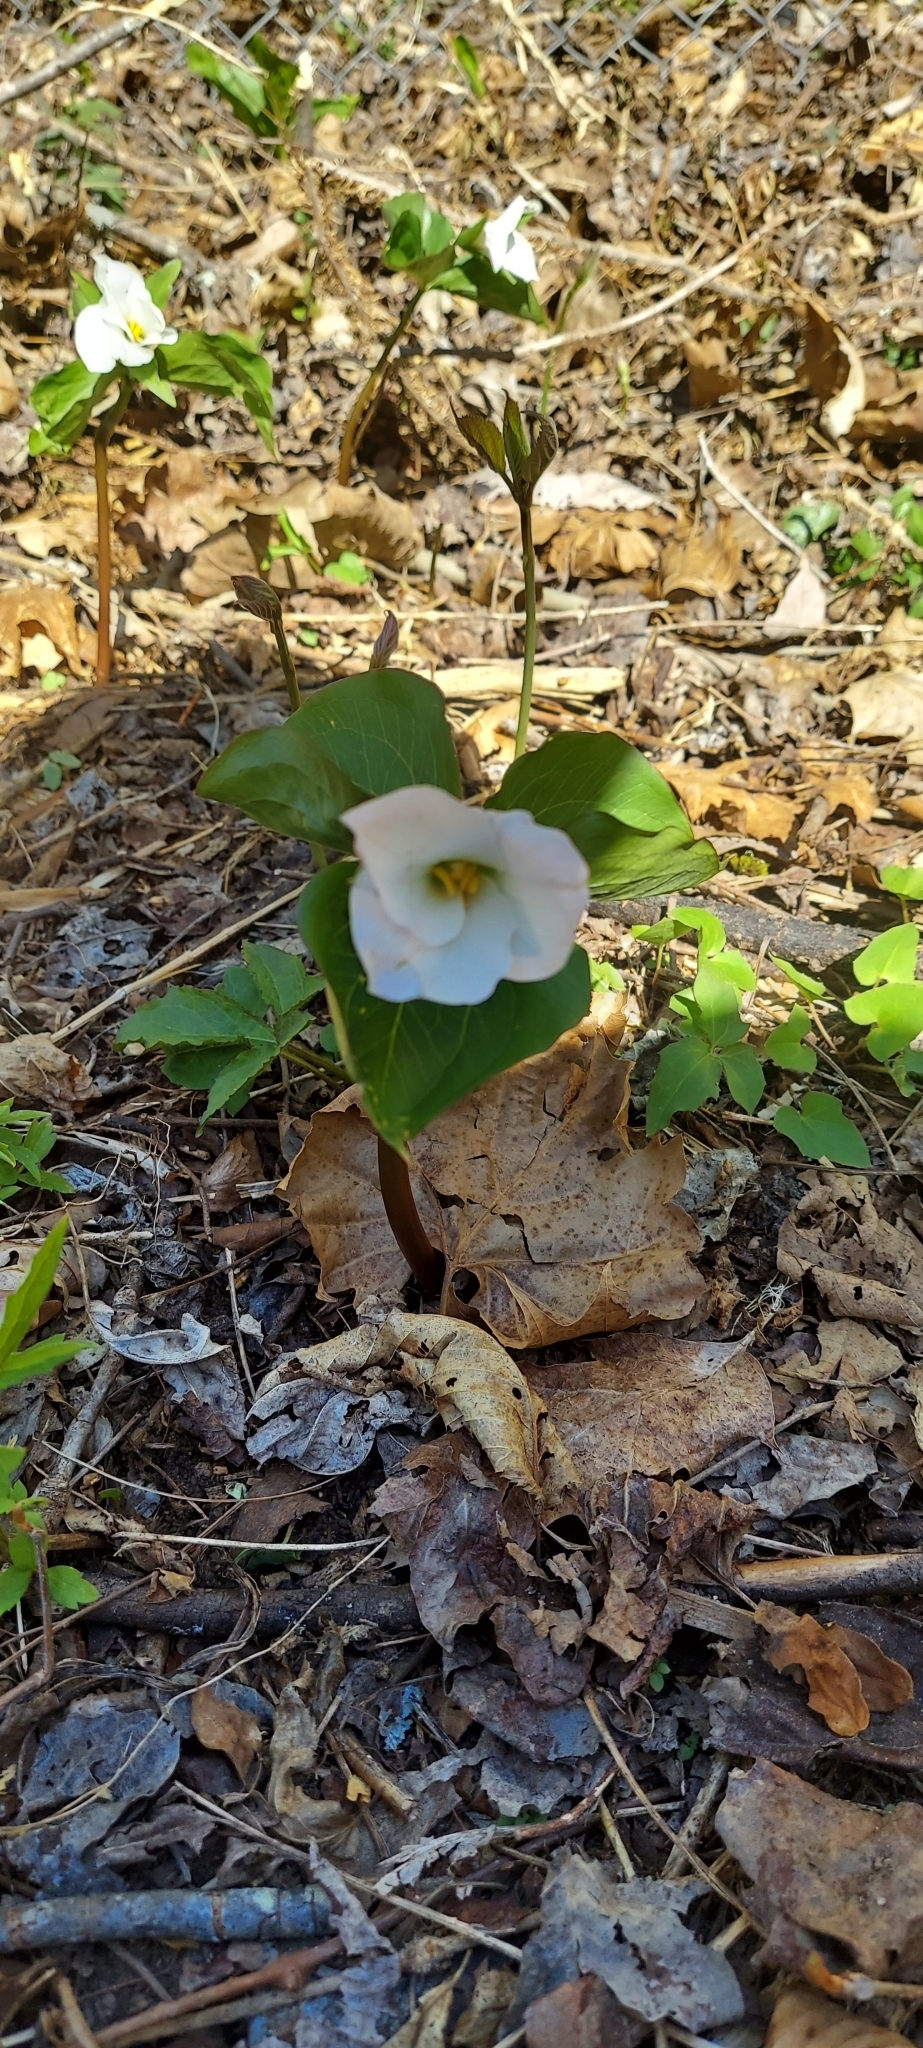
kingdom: Plantae
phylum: Tracheophyta
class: Liliopsida
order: Liliales
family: Melanthiaceae
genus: Trillium
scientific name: Trillium grandiflorum
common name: Great white trillium
